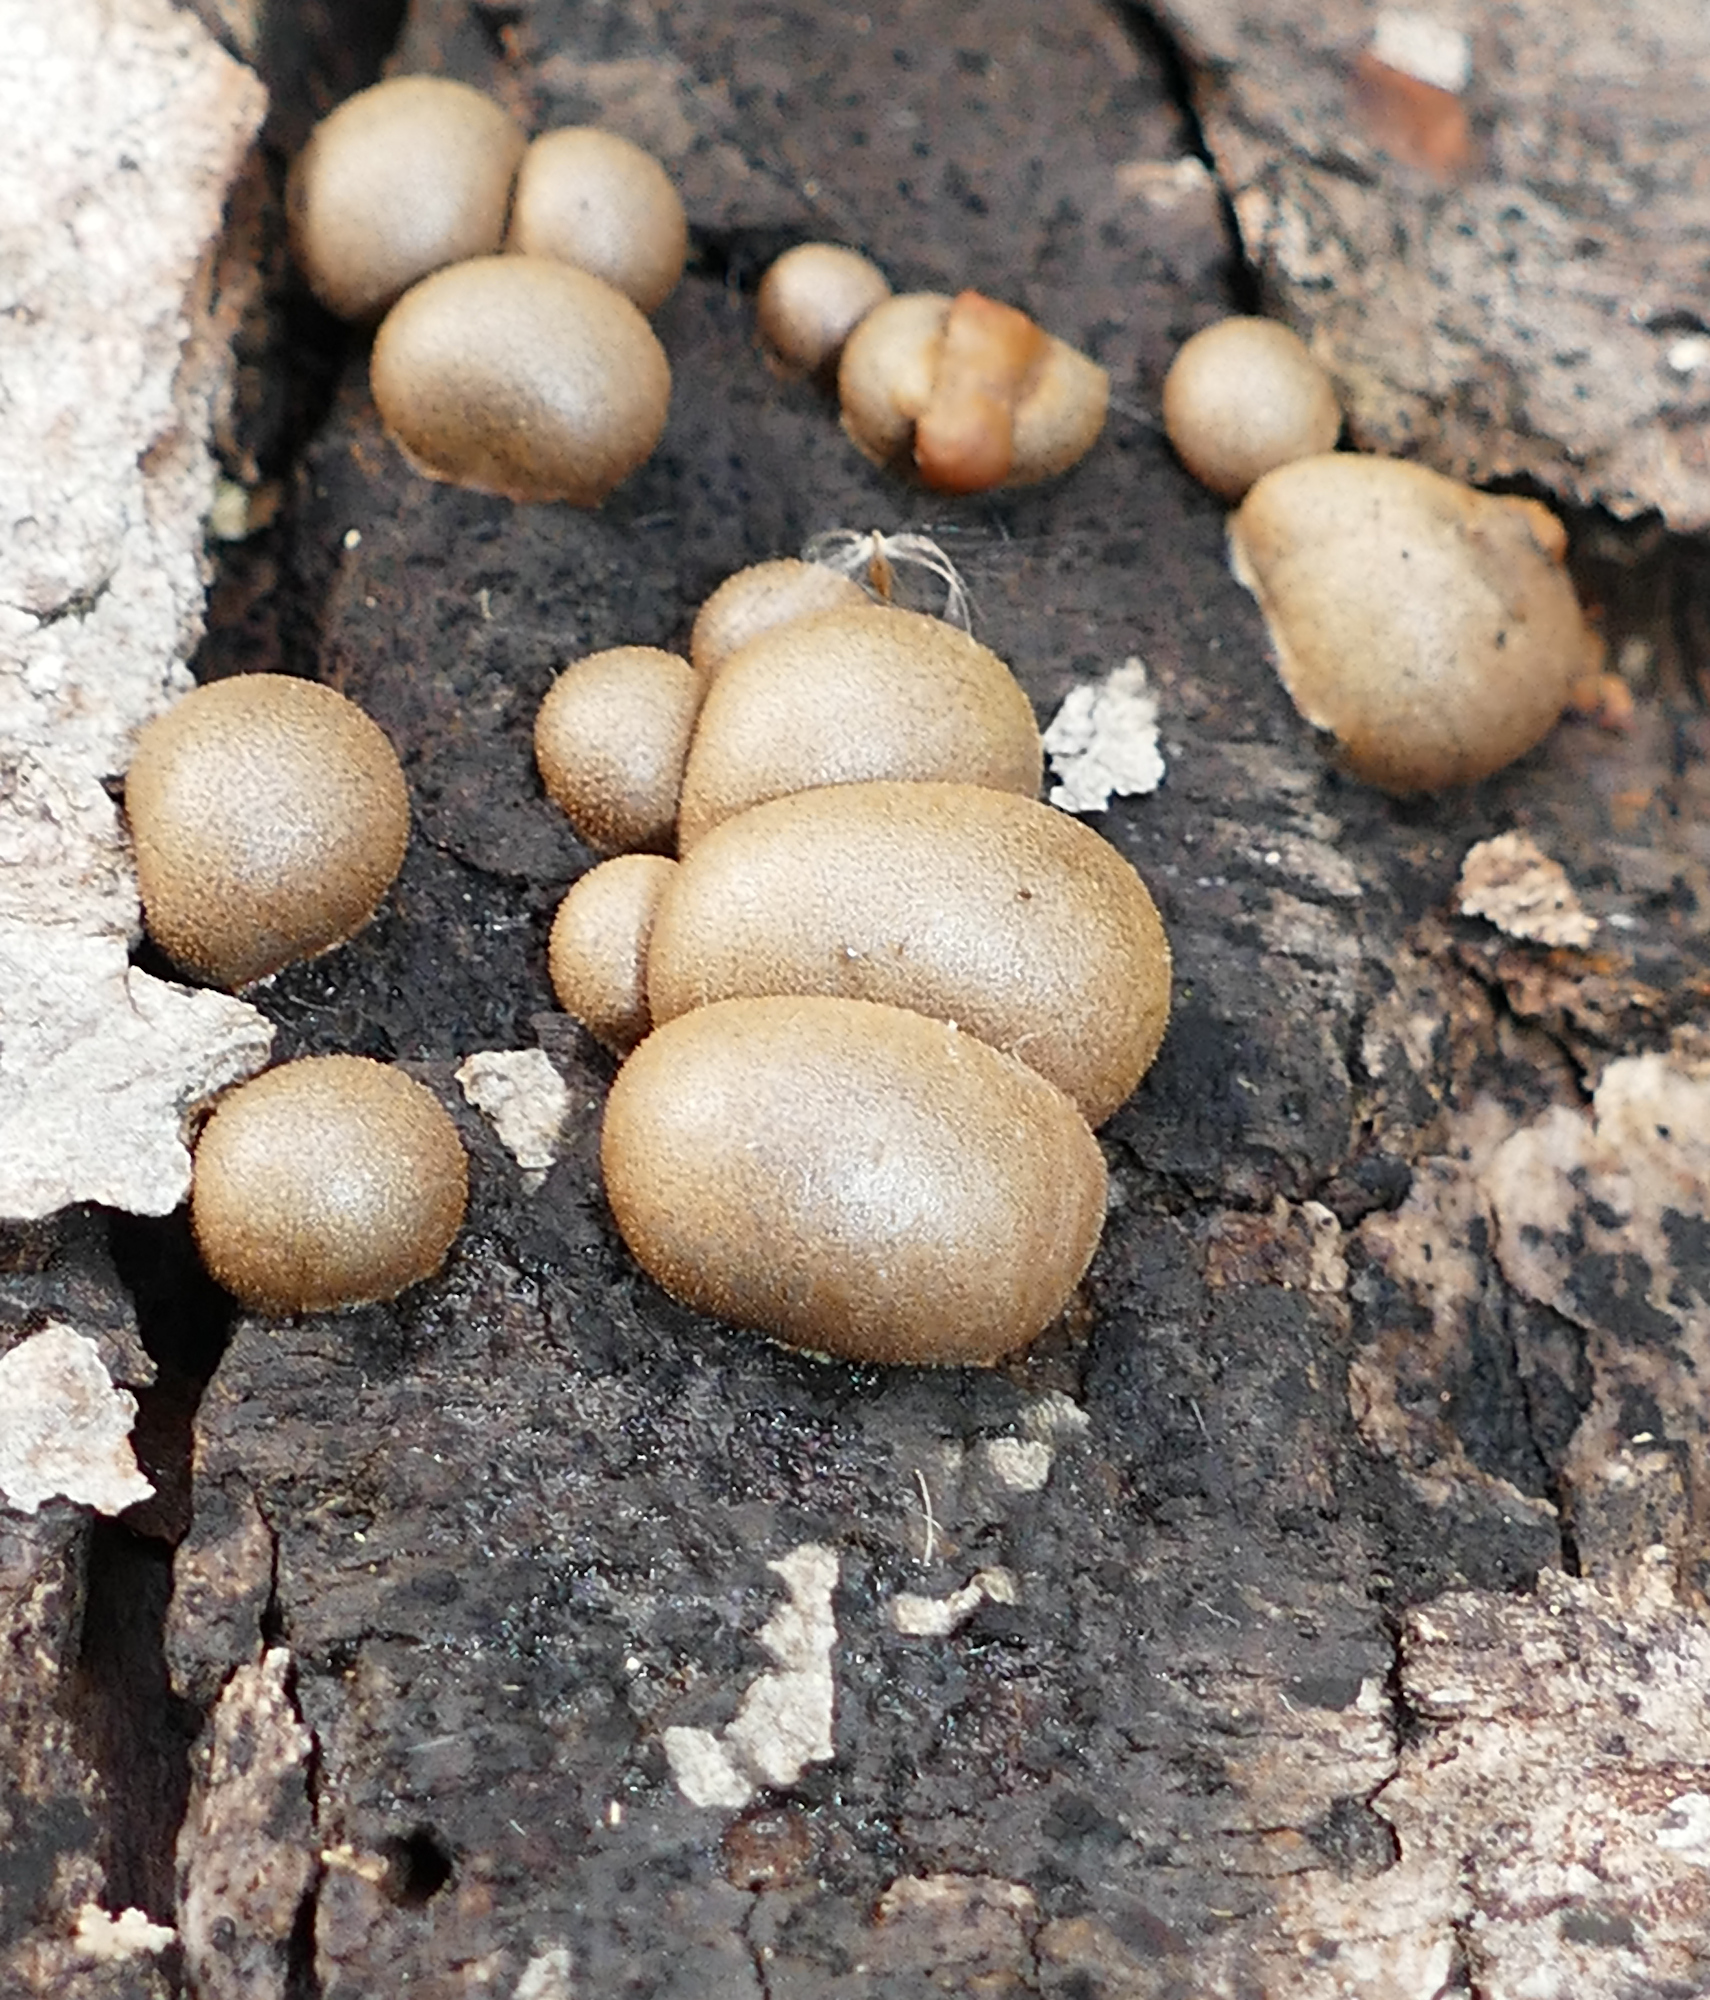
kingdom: Protozoa
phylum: Mycetozoa
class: Myxomycetes
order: Cribrariales
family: Tubiferaceae
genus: Lycogala
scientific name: Lycogala epidendrum
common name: Wolf's milk
